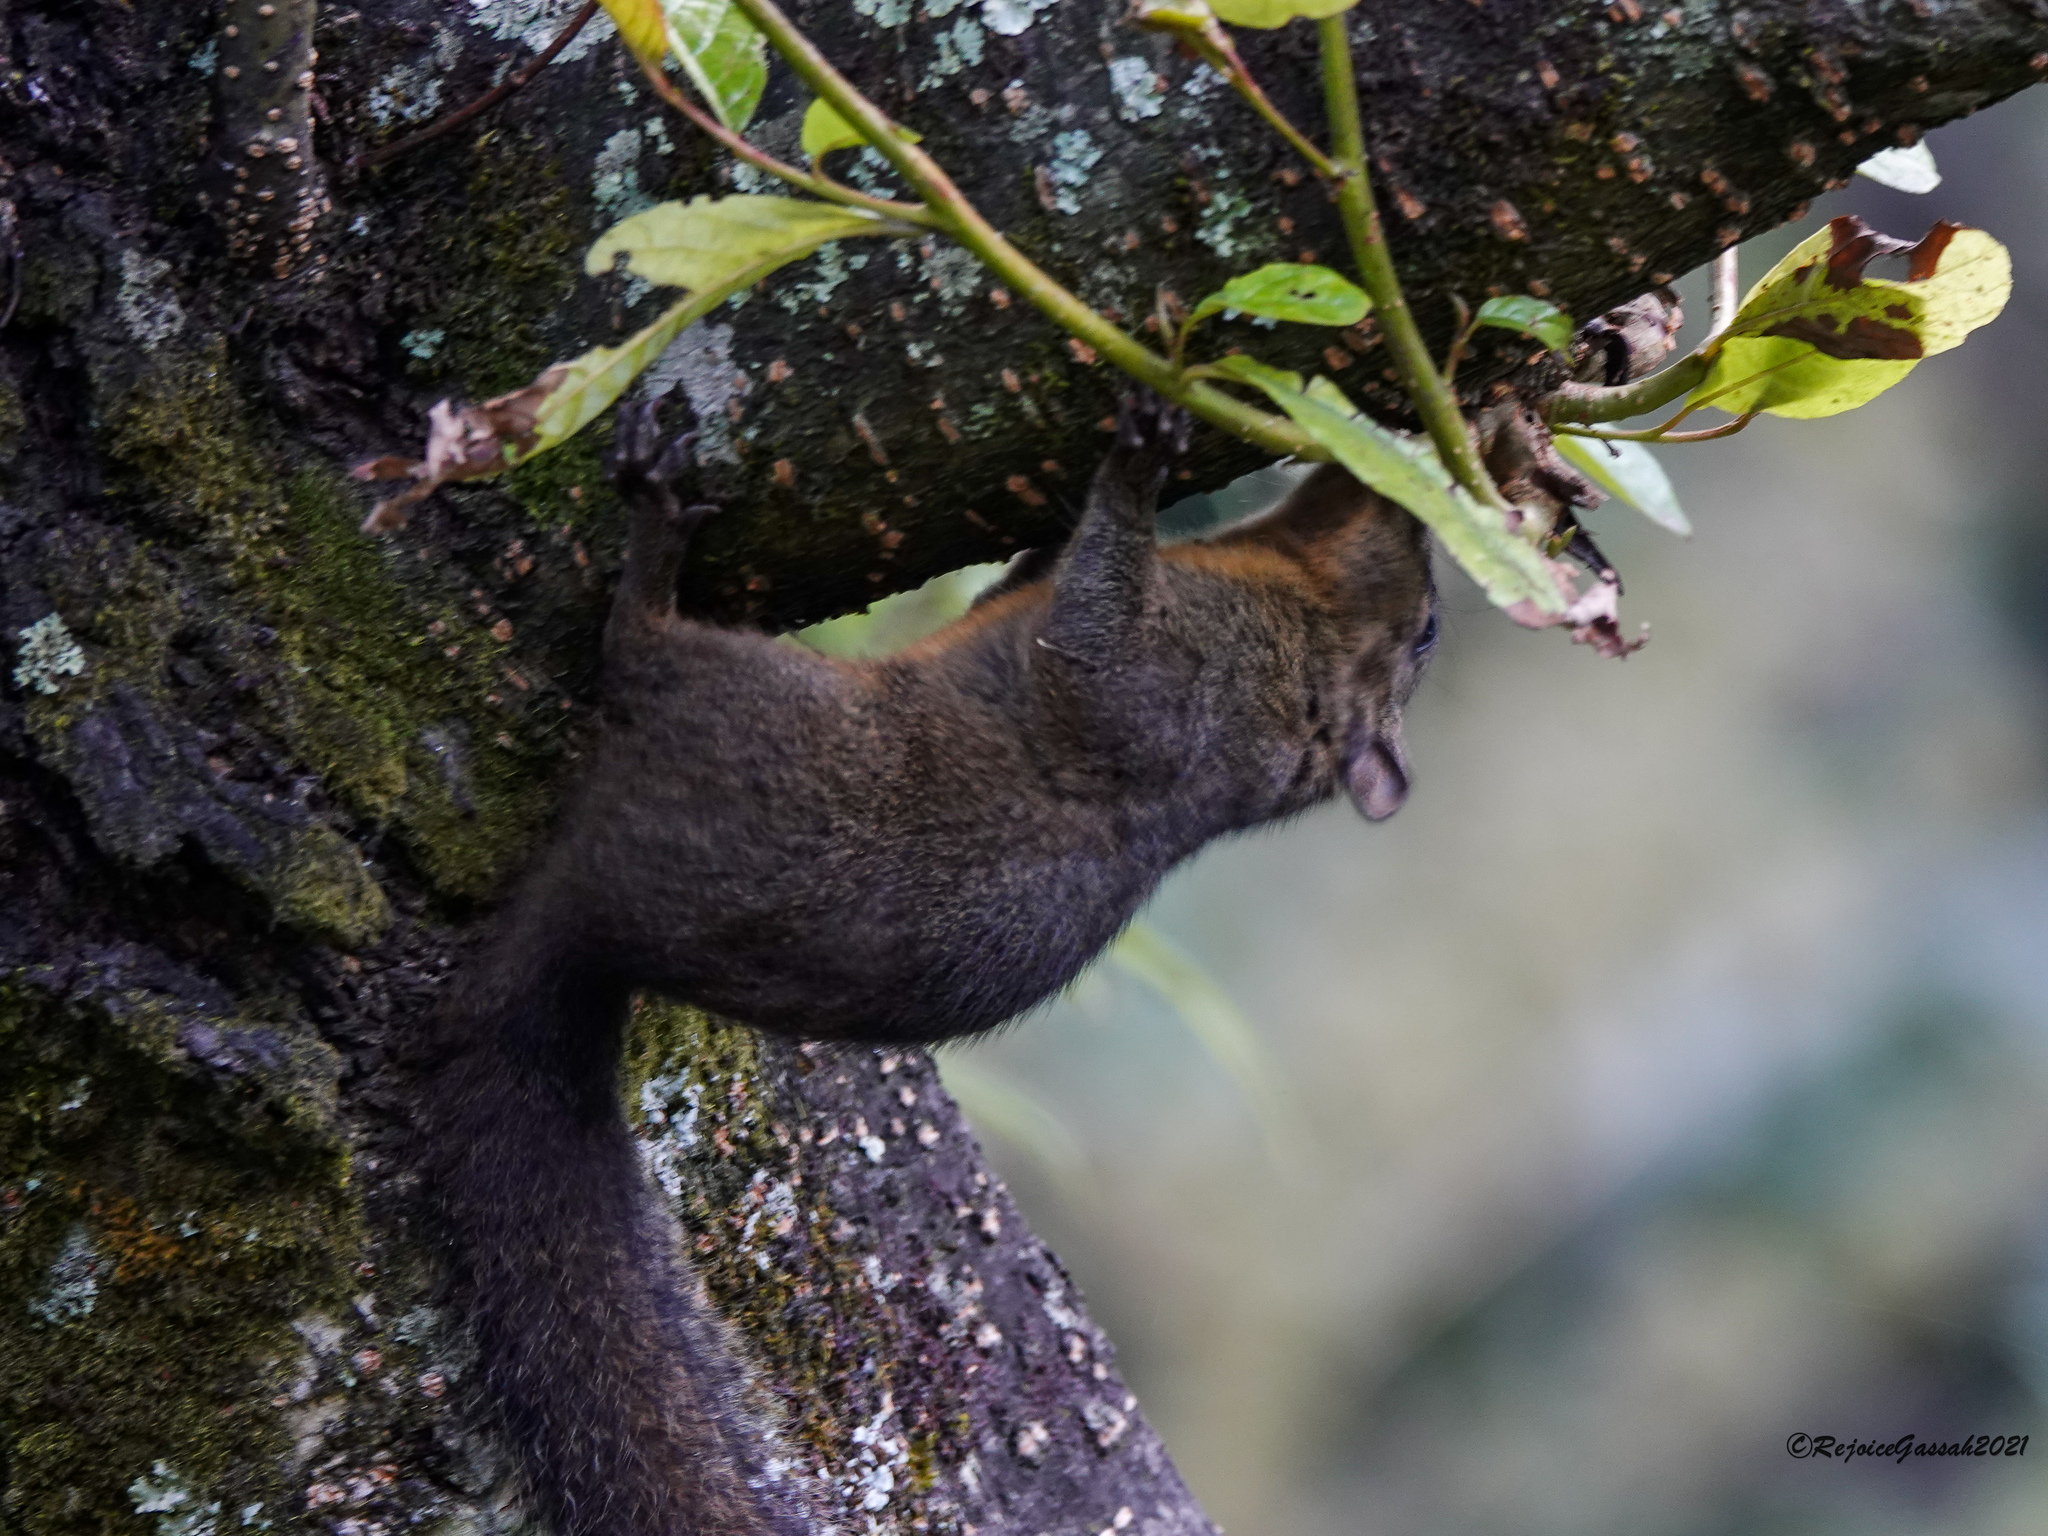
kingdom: Animalia
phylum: Chordata
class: Mammalia
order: Rodentia
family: Sciuridae
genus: Dremomys
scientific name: Dremomys lokriah
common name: Orange-bellied himalayan squirrel
